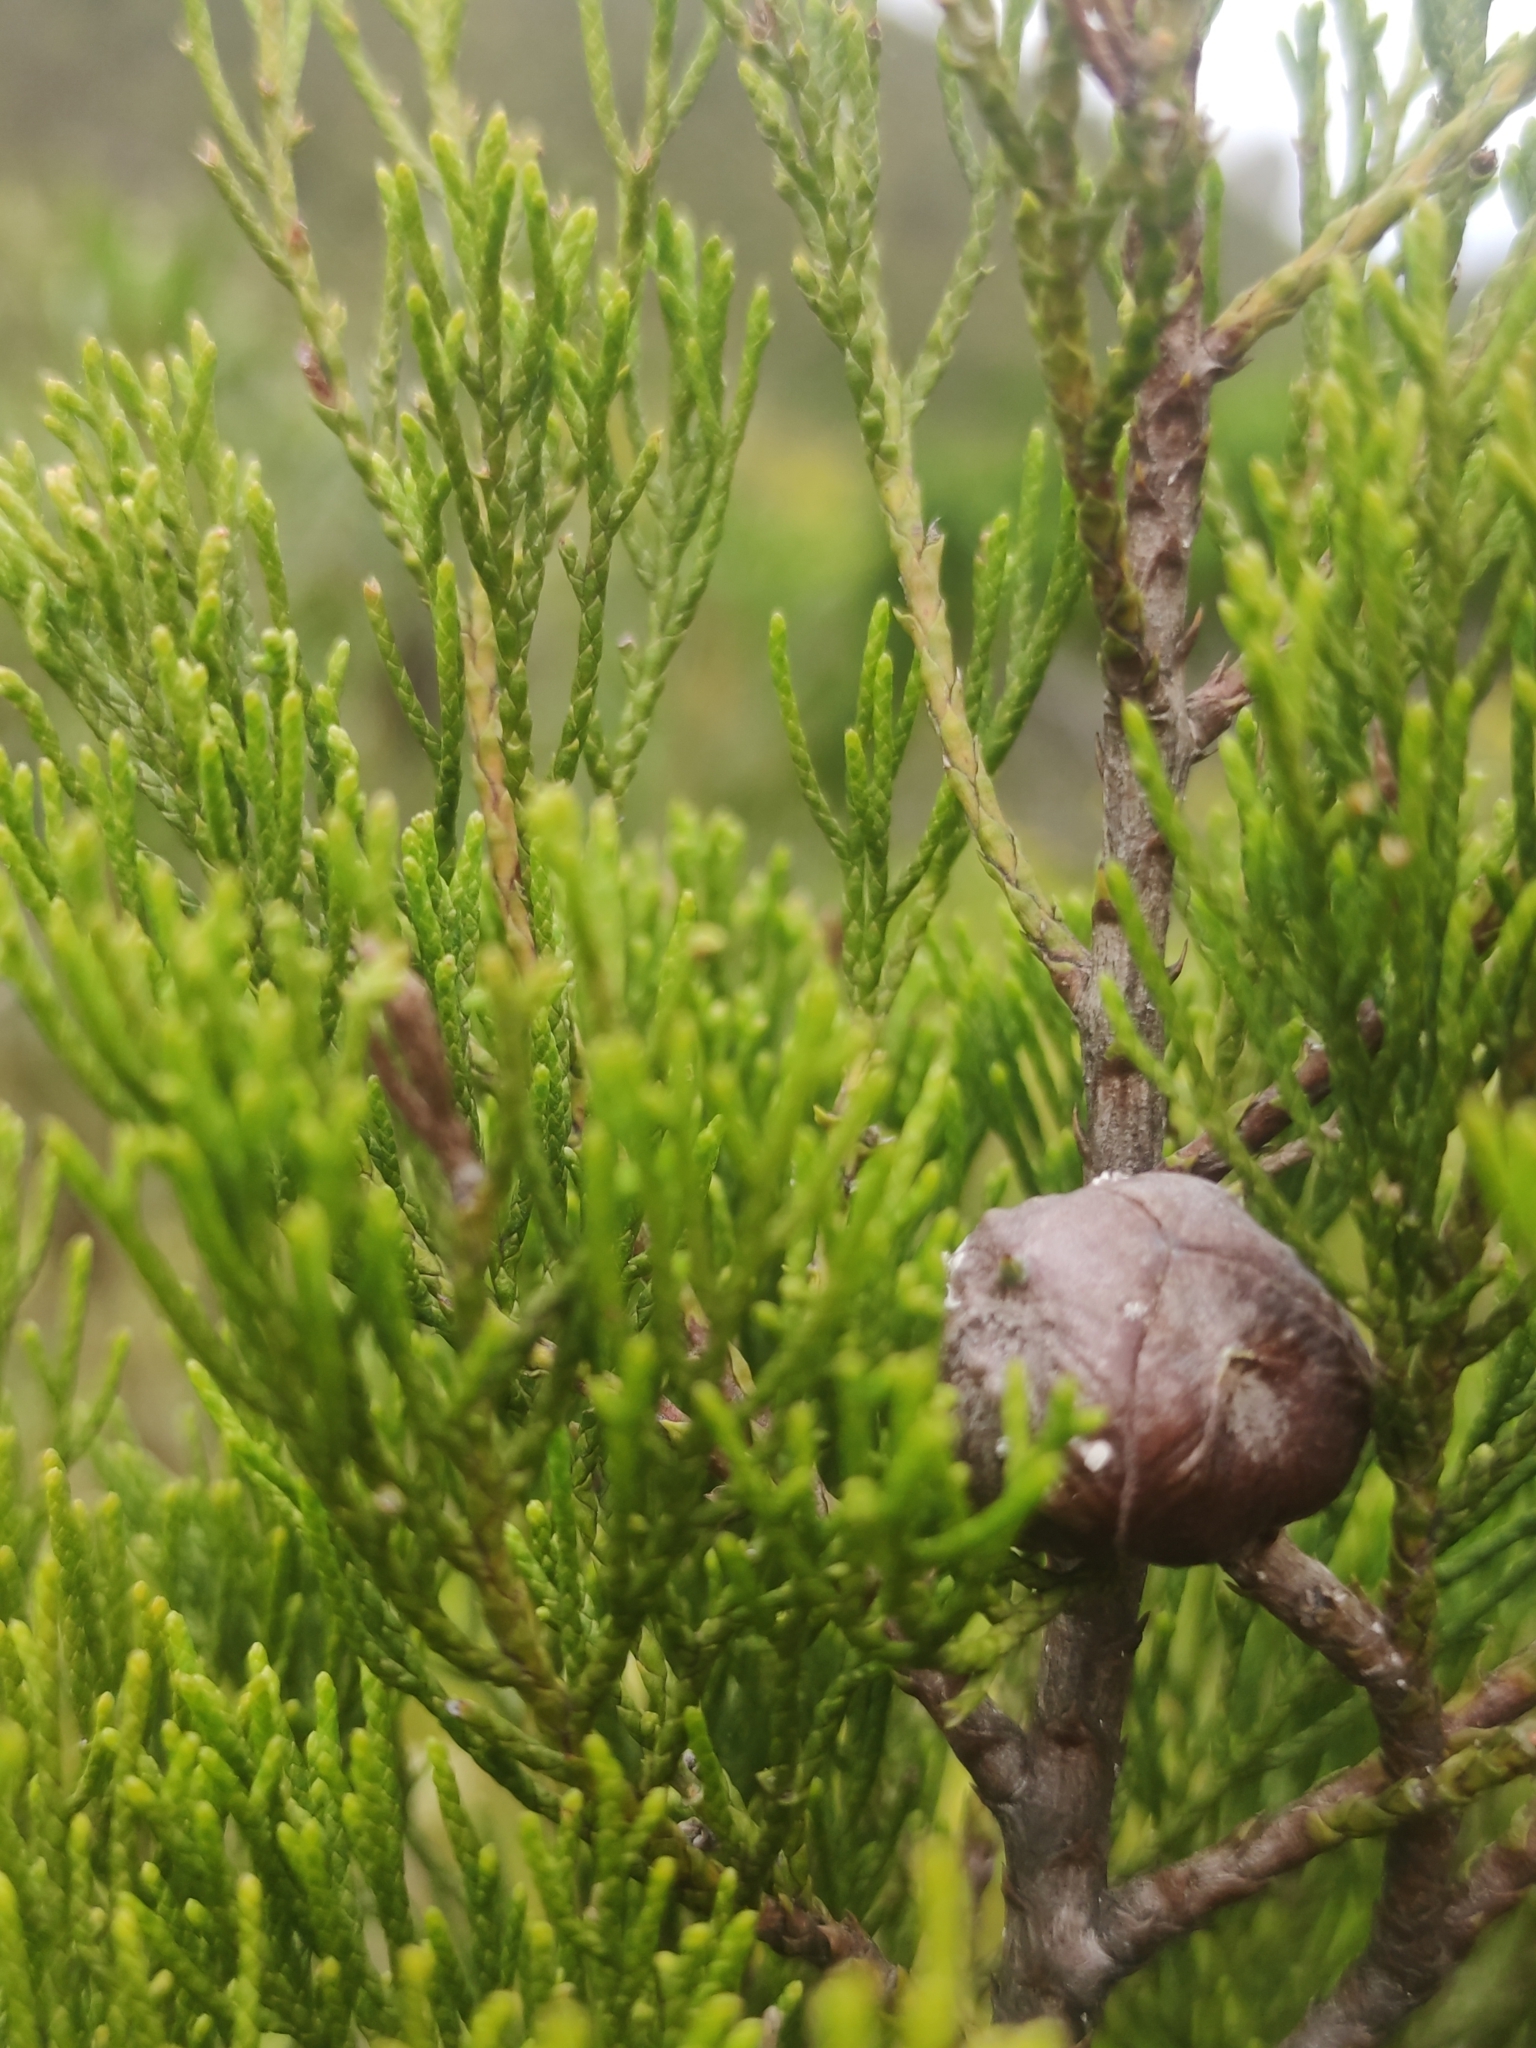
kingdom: Plantae
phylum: Tracheophyta
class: Pinopsida
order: Pinales
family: Cupressaceae
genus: Widdringtonia
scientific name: Widdringtonia nodiflora
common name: Cape cypress
